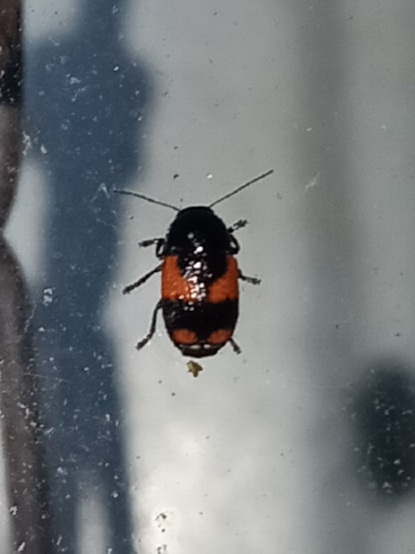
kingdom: Animalia
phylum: Arthropoda
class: Insecta
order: Coleoptera
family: Chrysomelidae
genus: Cryptocephalus
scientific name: Cryptocephalus binominis
